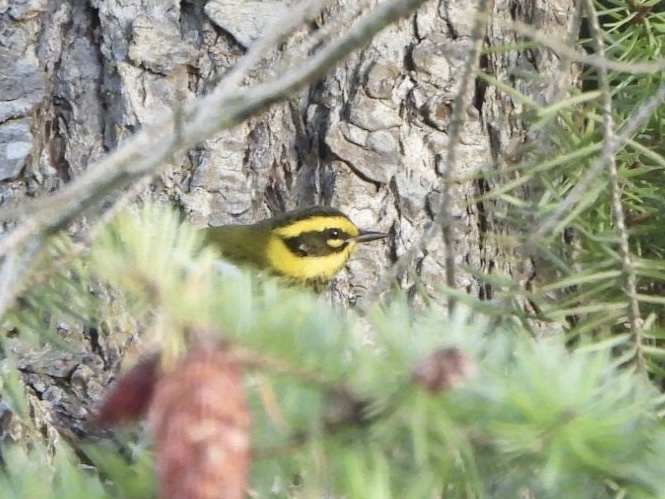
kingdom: Animalia
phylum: Chordata
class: Aves
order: Passeriformes
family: Parulidae
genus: Setophaga
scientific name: Setophaga townsendi
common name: Townsend's warbler
